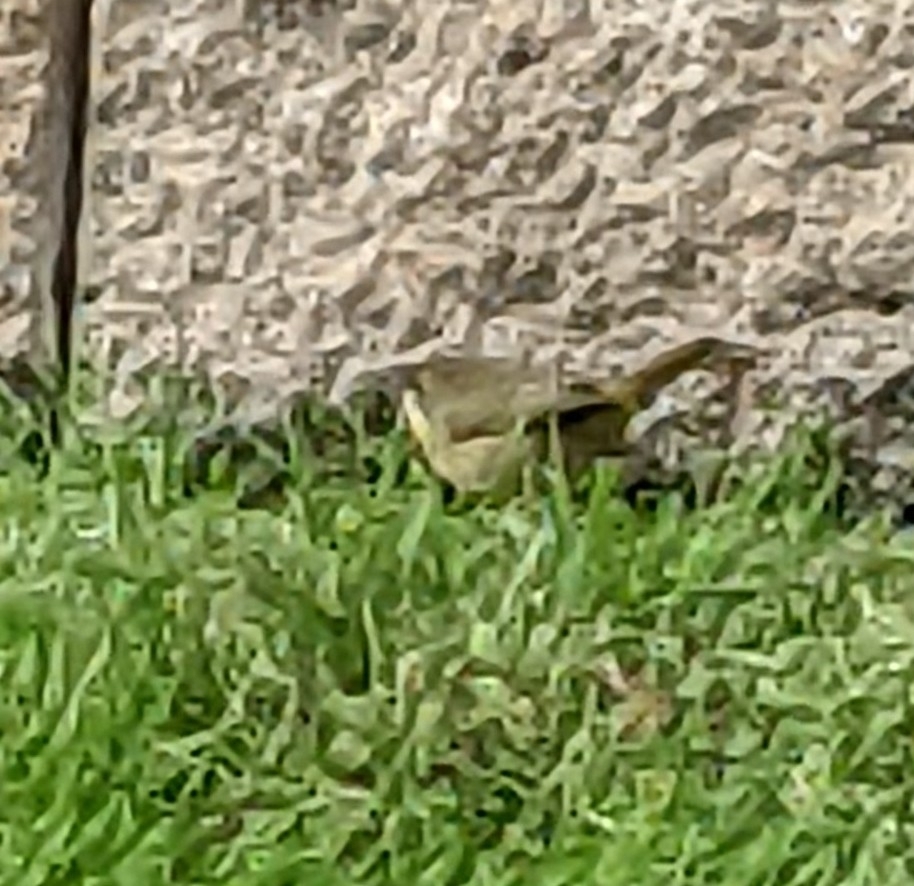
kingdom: Animalia
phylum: Chordata
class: Aves
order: Passeriformes
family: Parulidae
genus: Geothlypis
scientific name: Geothlypis trichas
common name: Common yellowthroat
